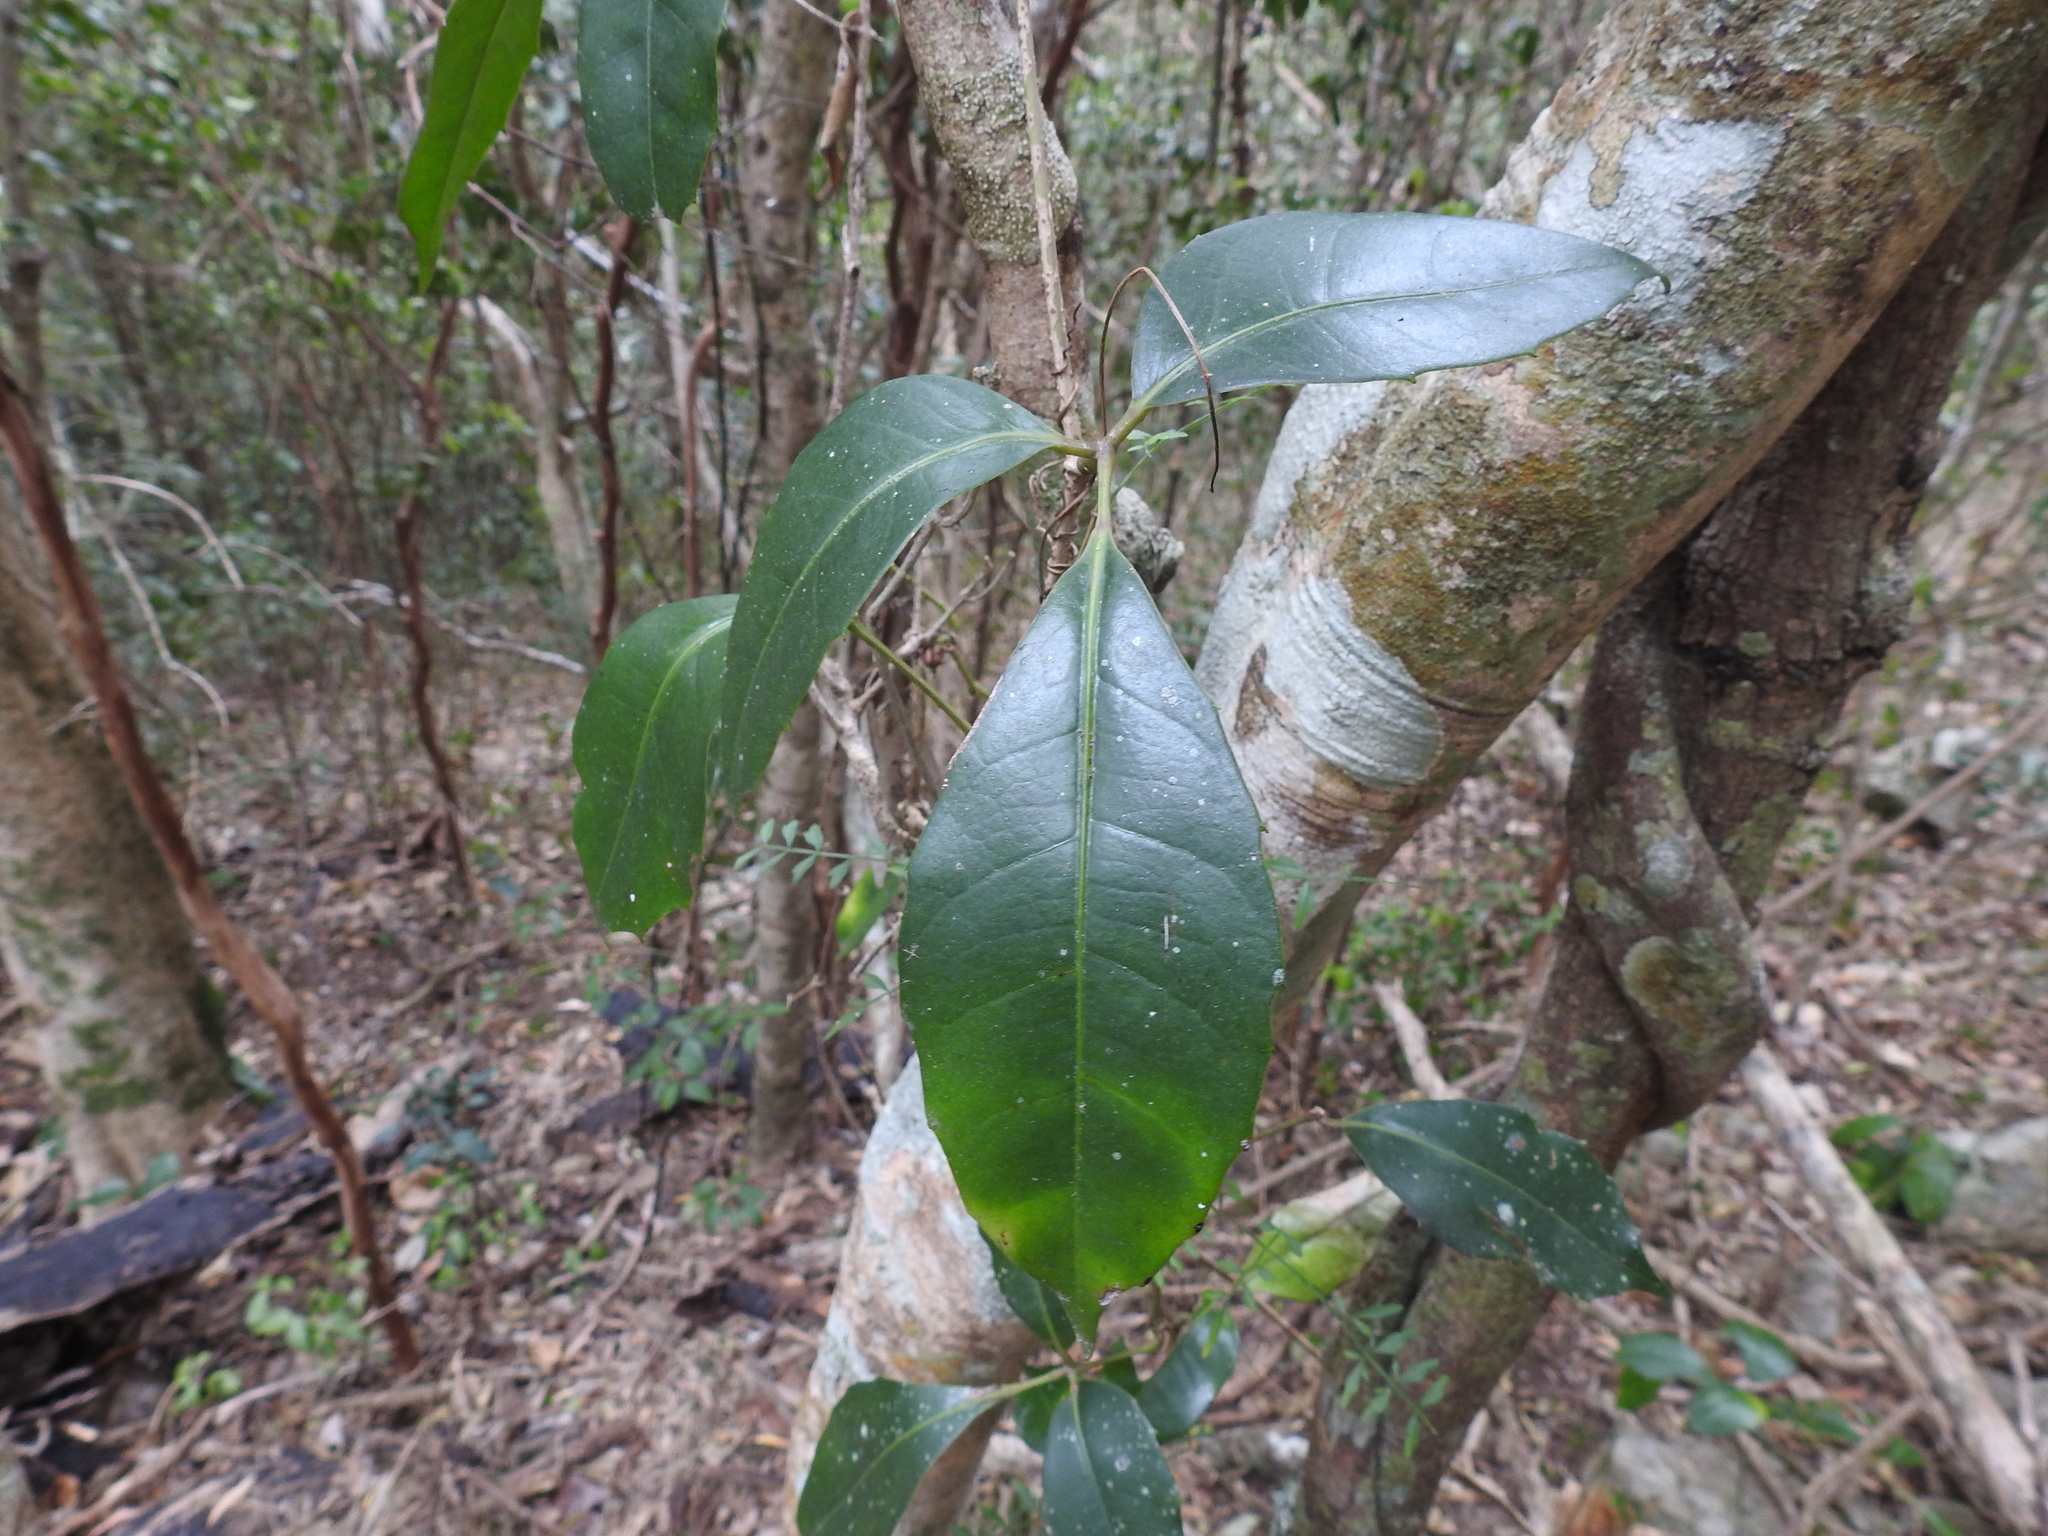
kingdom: Plantae
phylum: Tracheophyta
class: Magnoliopsida
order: Vitales
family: Vitaceae
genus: Tetrastigma
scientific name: Tetrastigma nitens
